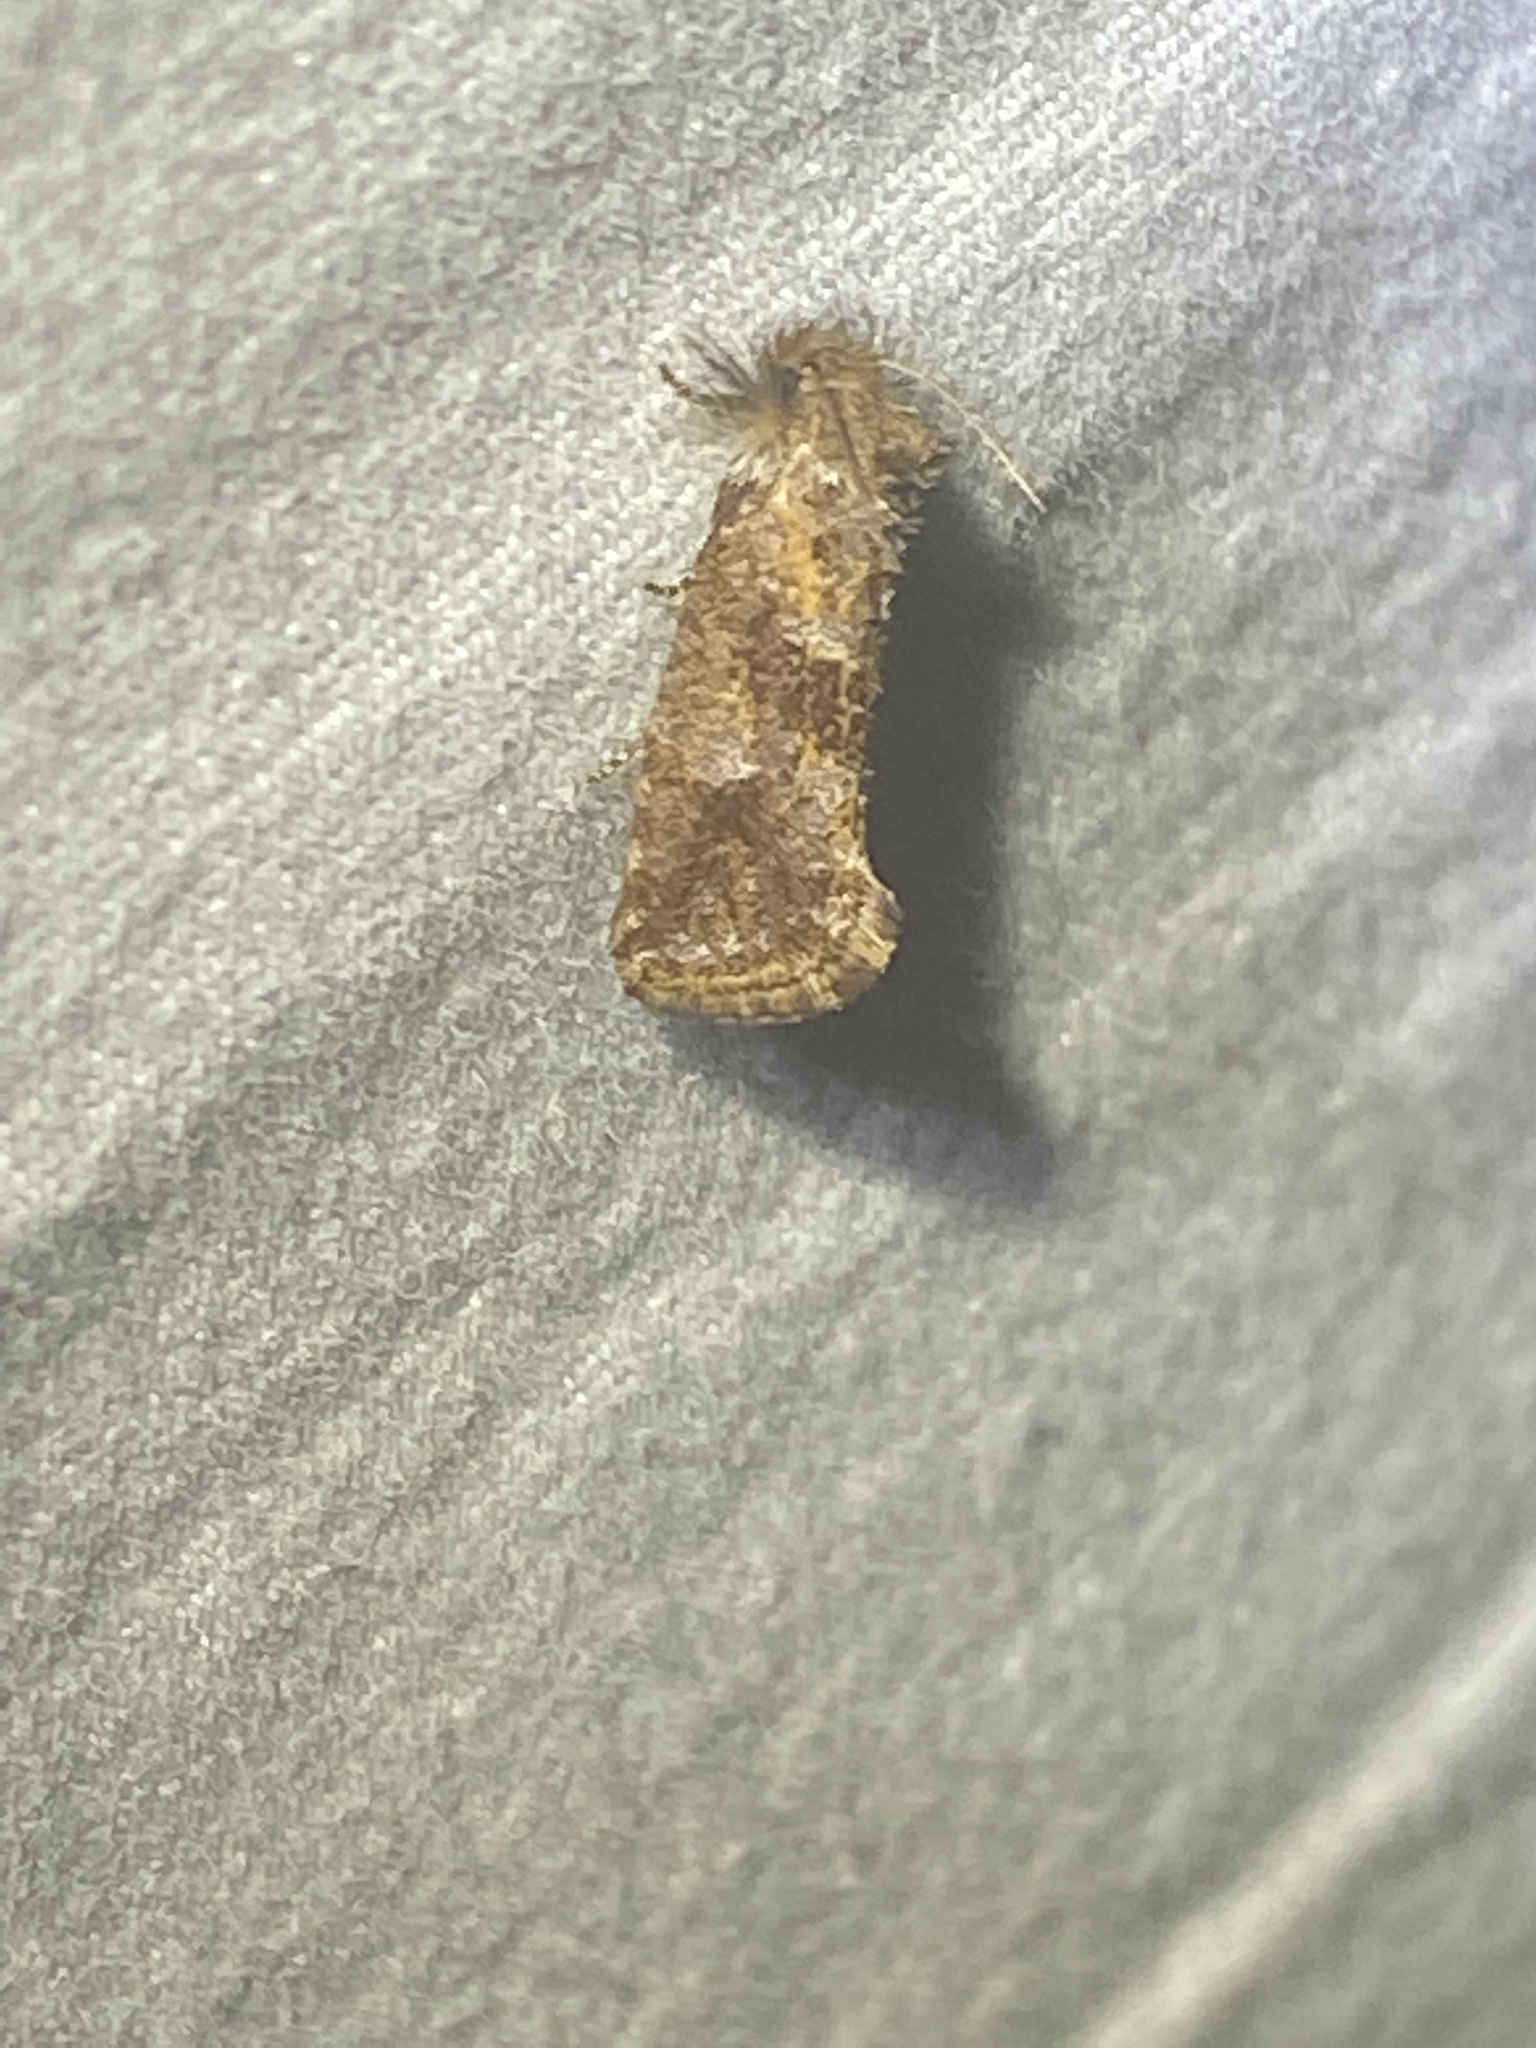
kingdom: Animalia
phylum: Arthropoda
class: Insecta
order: Lepidoptera
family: Tineidae
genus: Acrolophus
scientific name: Acrolophus panamae
